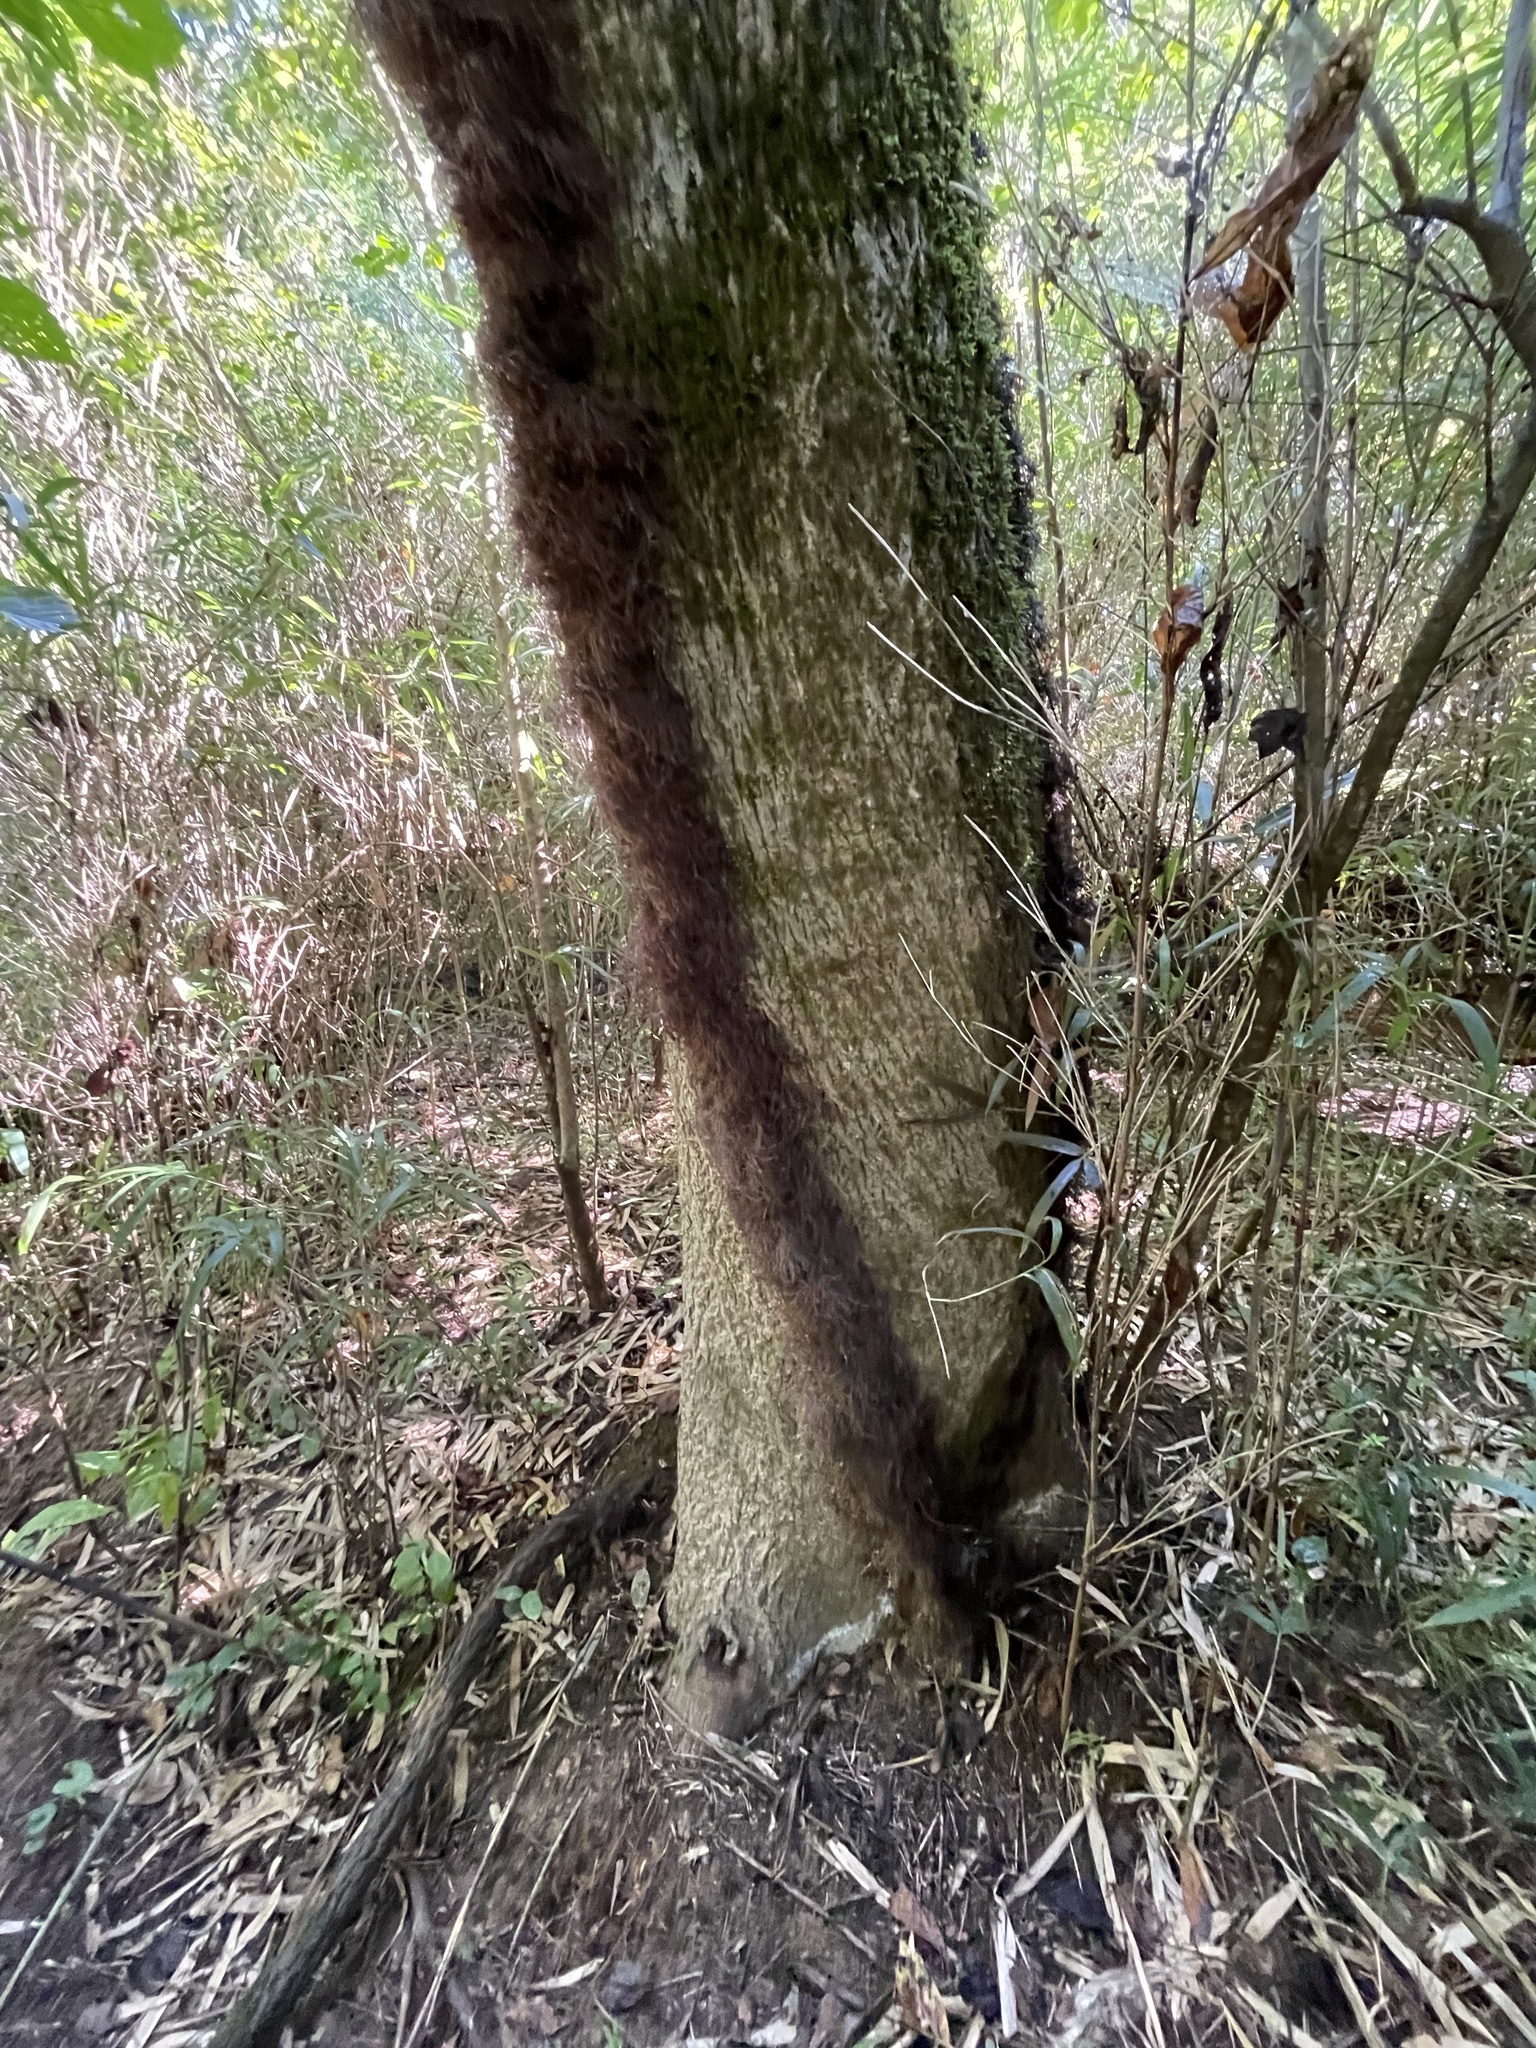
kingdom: Plantae
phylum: Tracheophyta
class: Magnoliopsida
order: Sapindales
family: Anacardiaceae
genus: Toxicodendron
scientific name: Toxicodendron radicans
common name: Poison ivy
